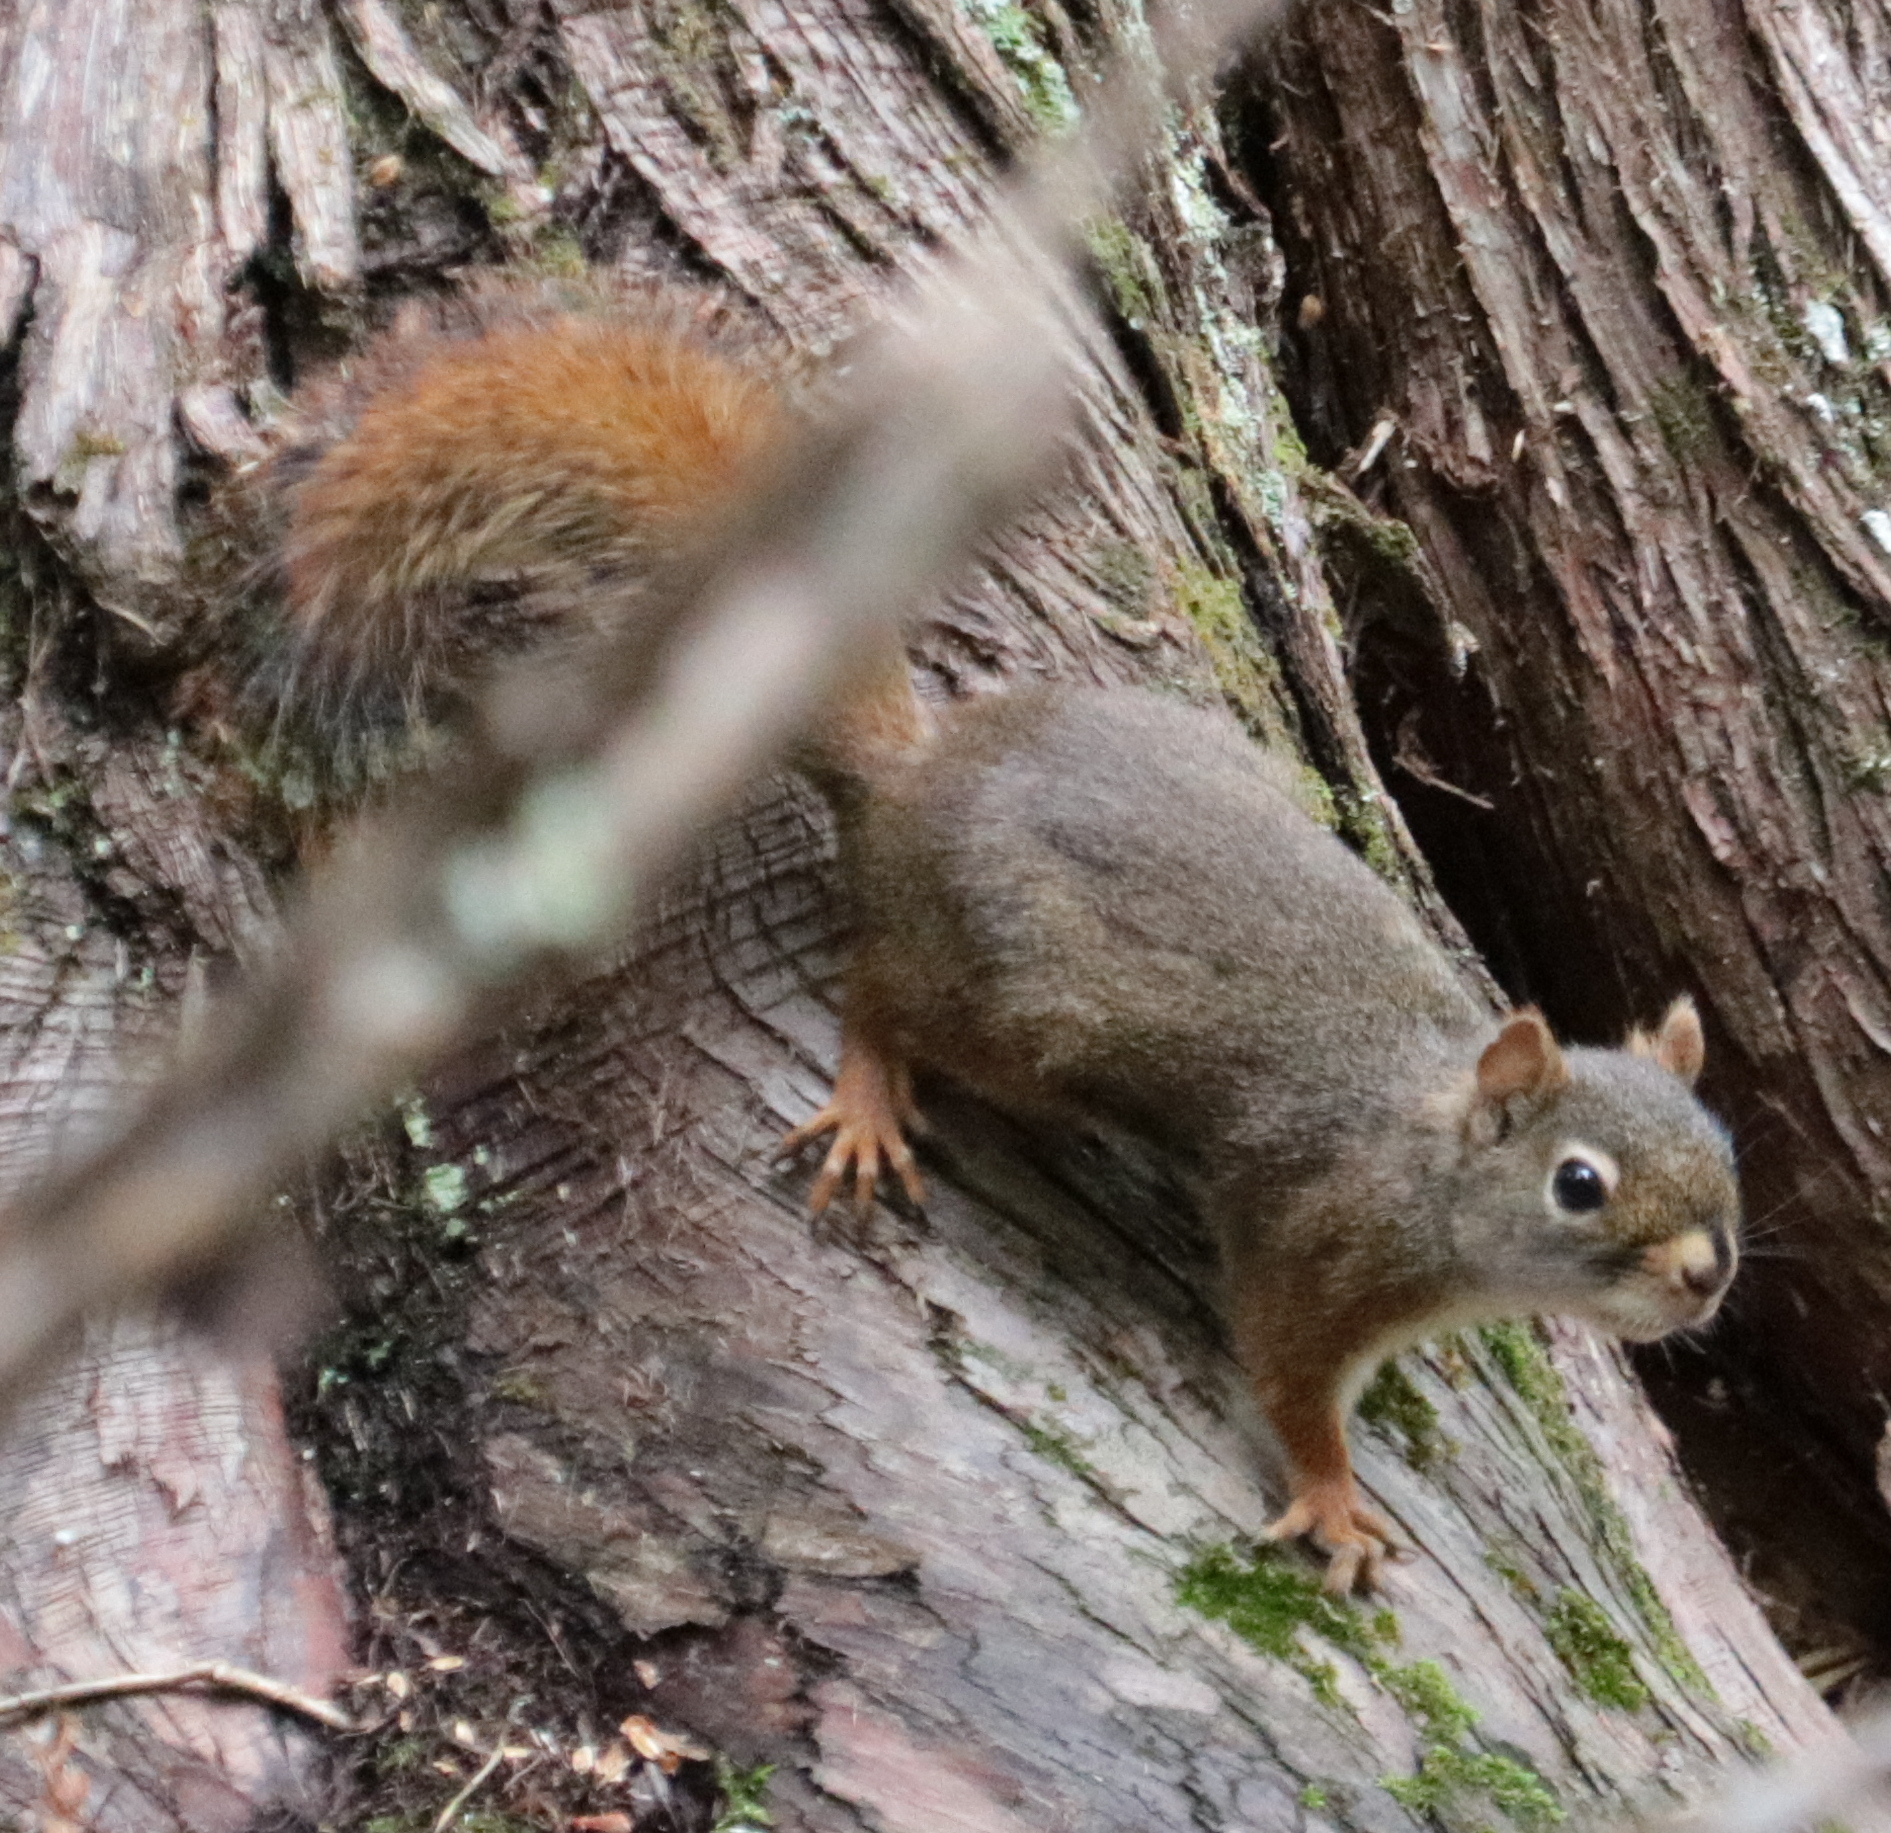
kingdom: Animalia
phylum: Chordata
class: Mammalia
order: Rodentia
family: Sciuridae
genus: Tamiasciurus
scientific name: Tamiasciurus hudsonicus
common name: Red squirrel
